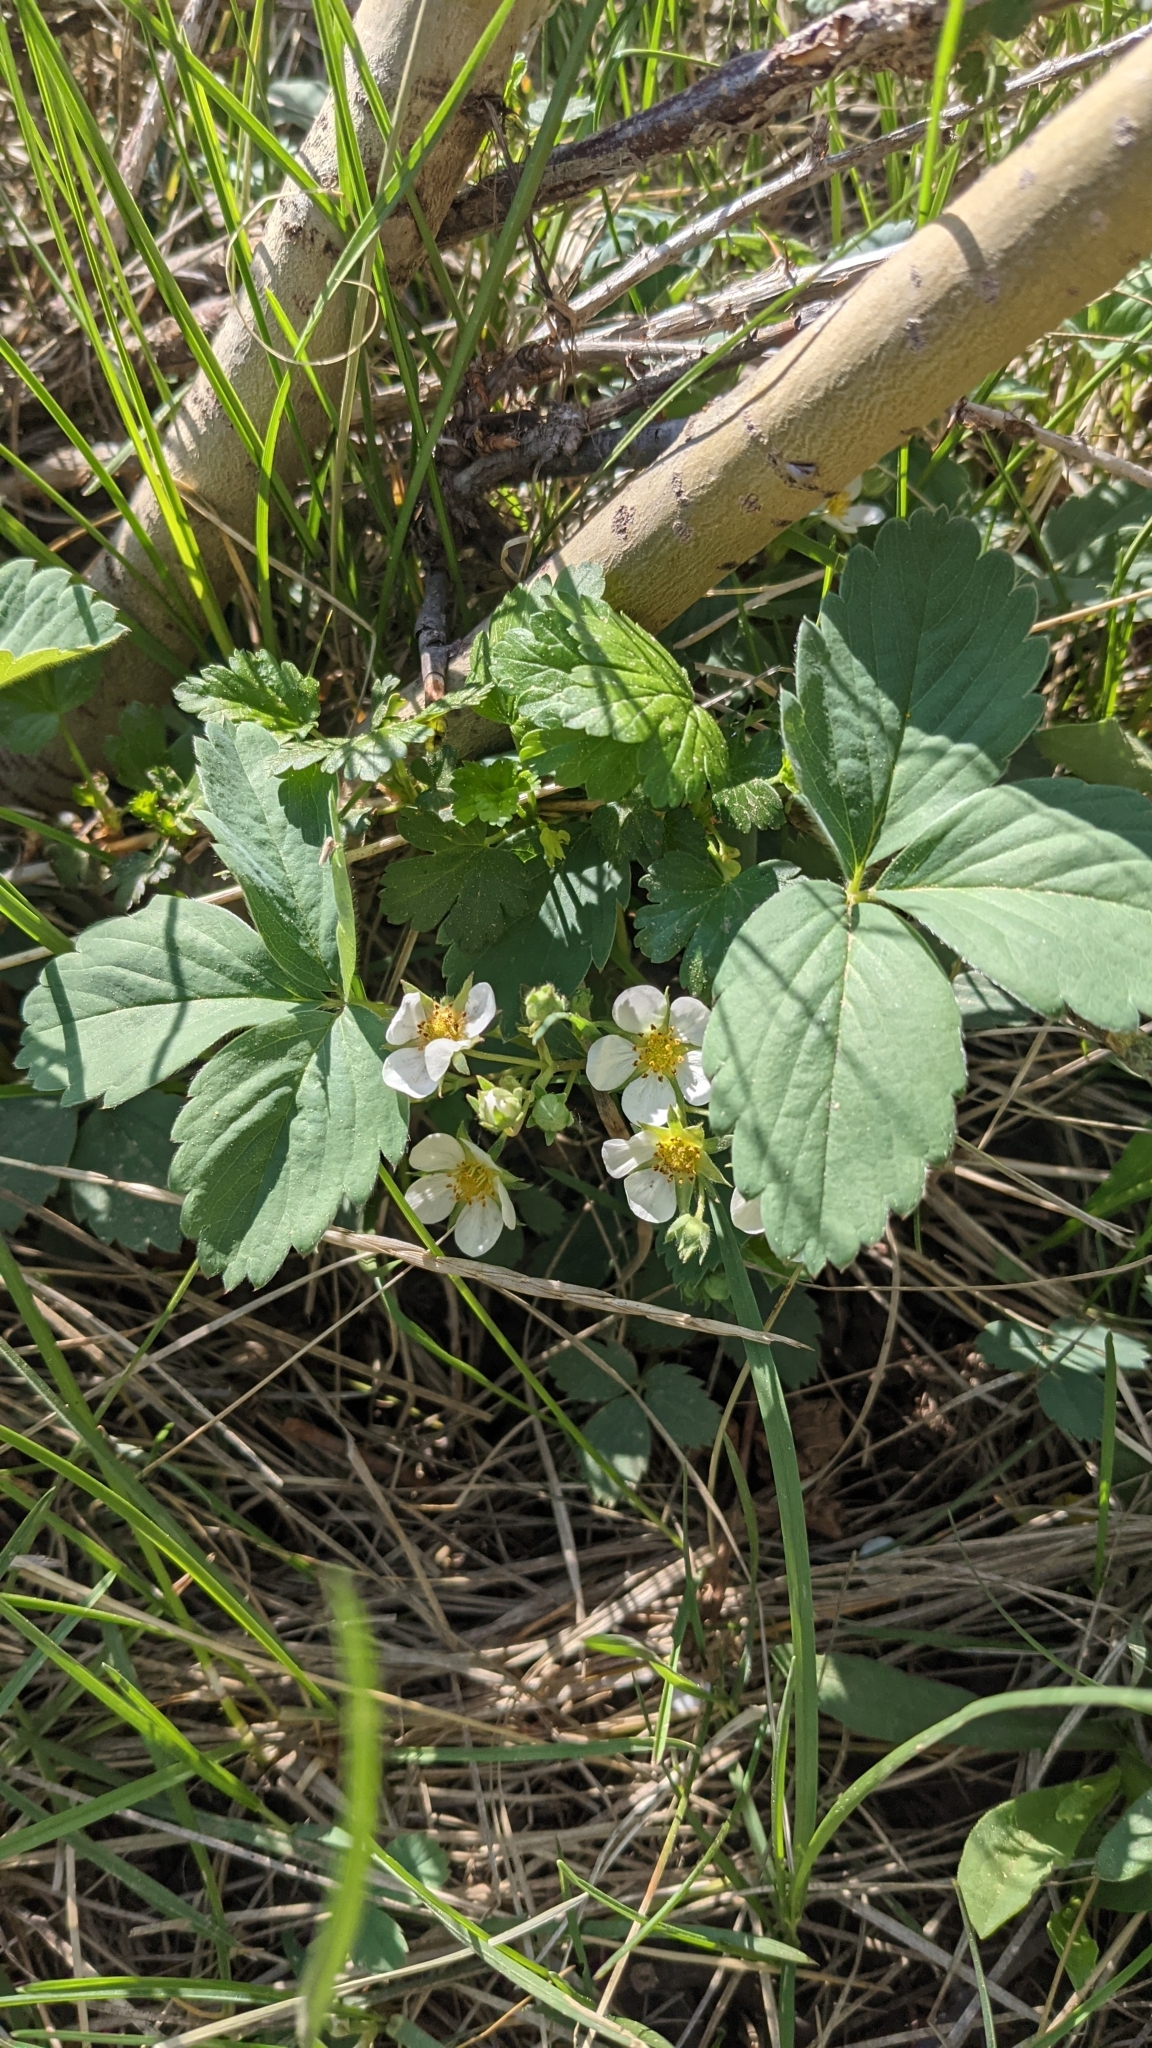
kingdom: Plantae
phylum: Tracheophyta
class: Magnoliopsida
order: Rosales
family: Rosaceae
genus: Fragaria
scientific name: Fragaria virginiana
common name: Thickleaved wild strawberry
